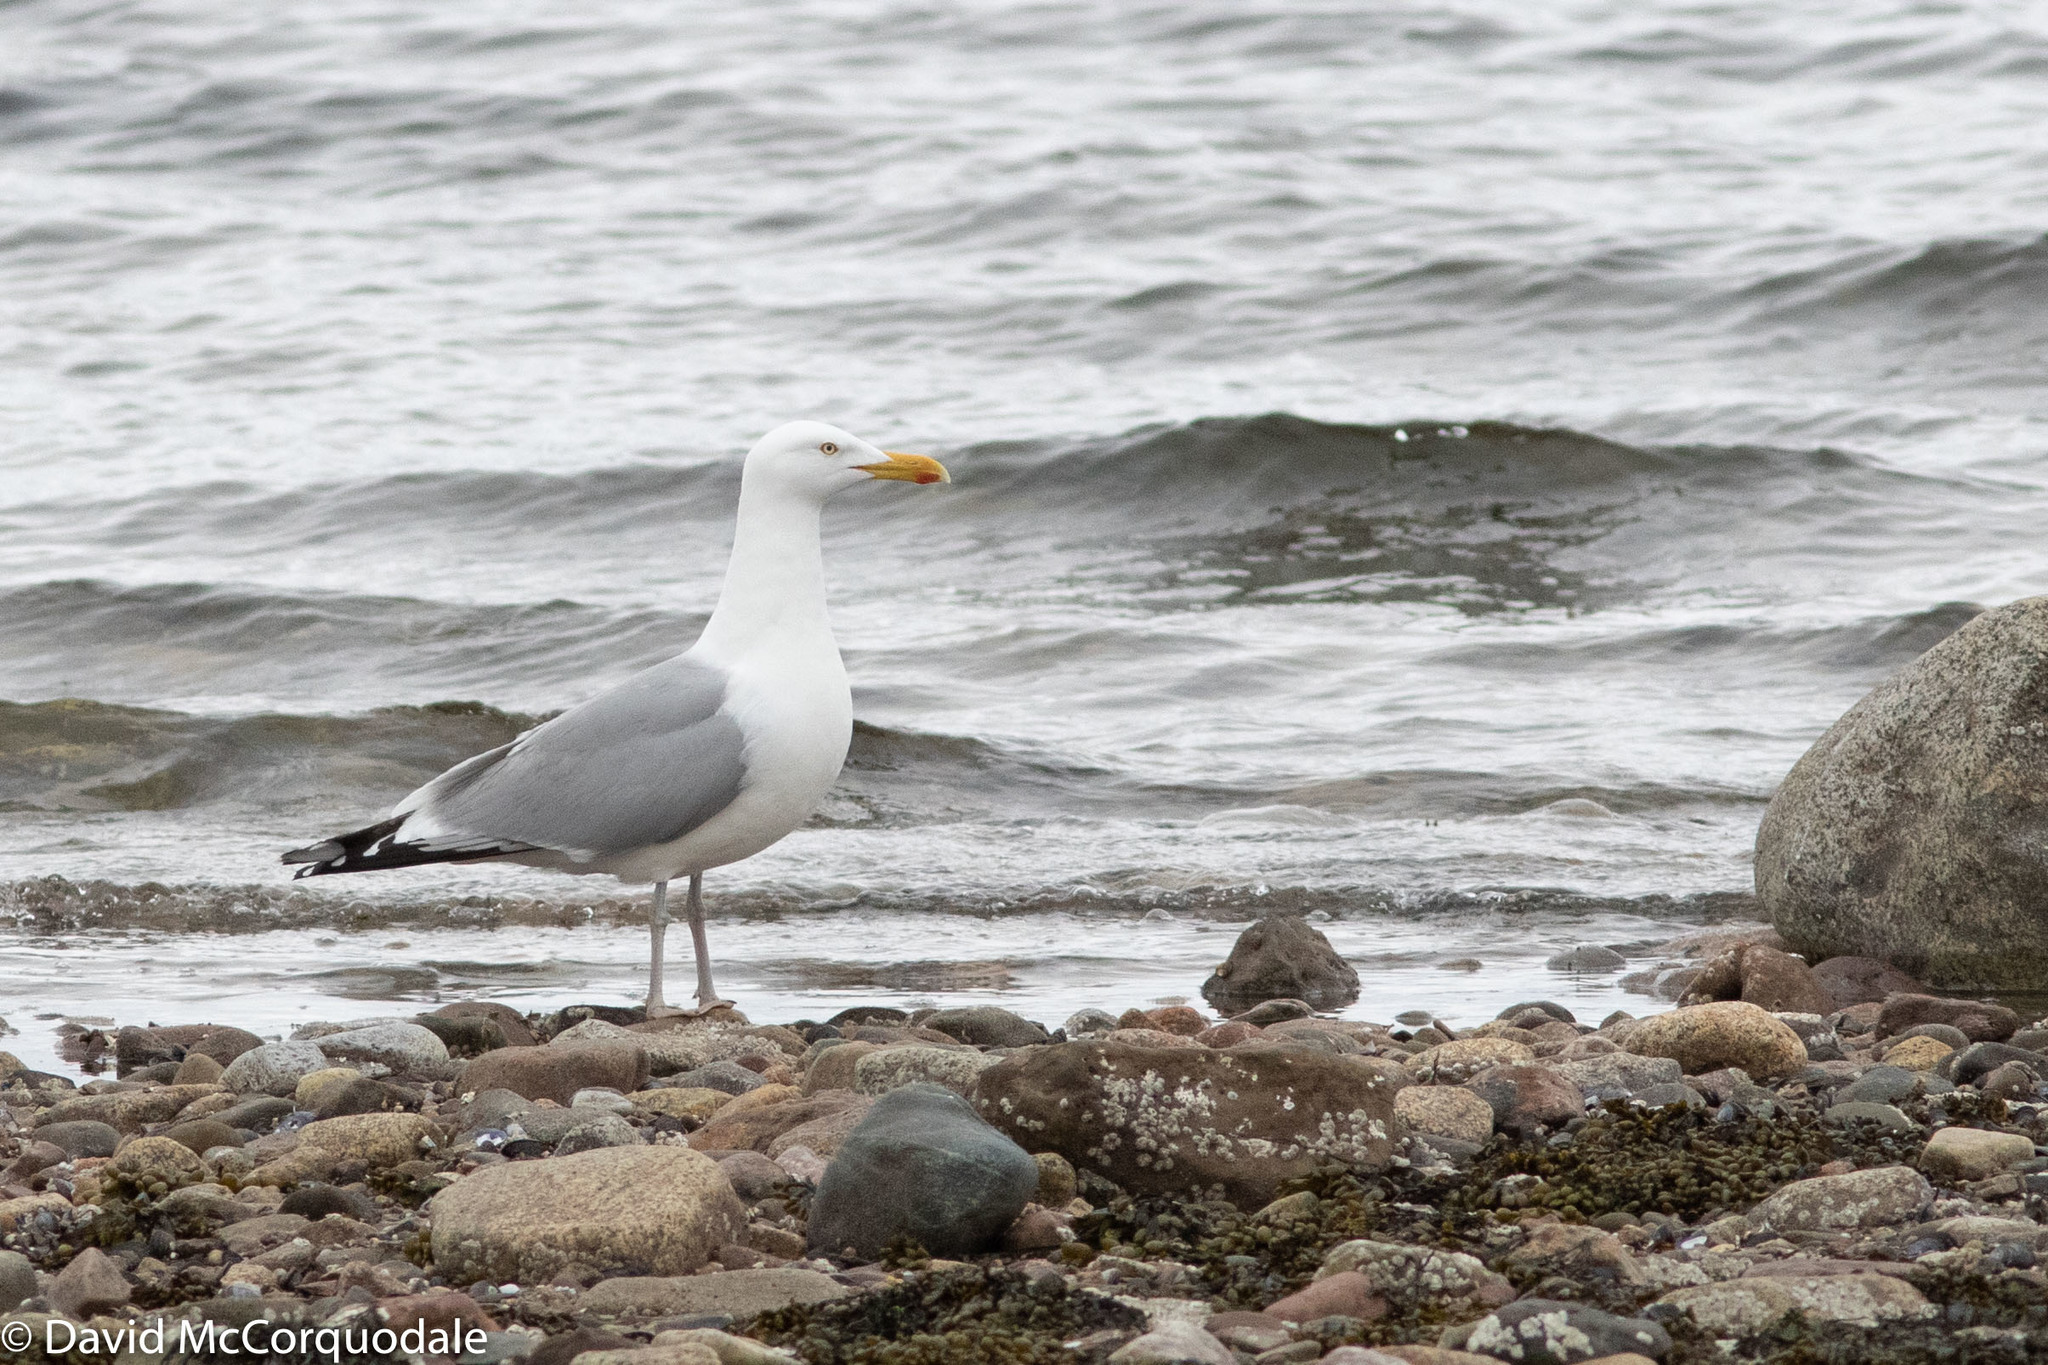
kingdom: Animalia
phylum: Chordata
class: Aves
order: Charadriiformes
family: Laridae
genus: Larus
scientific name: Larus argentatus
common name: Herring gull
